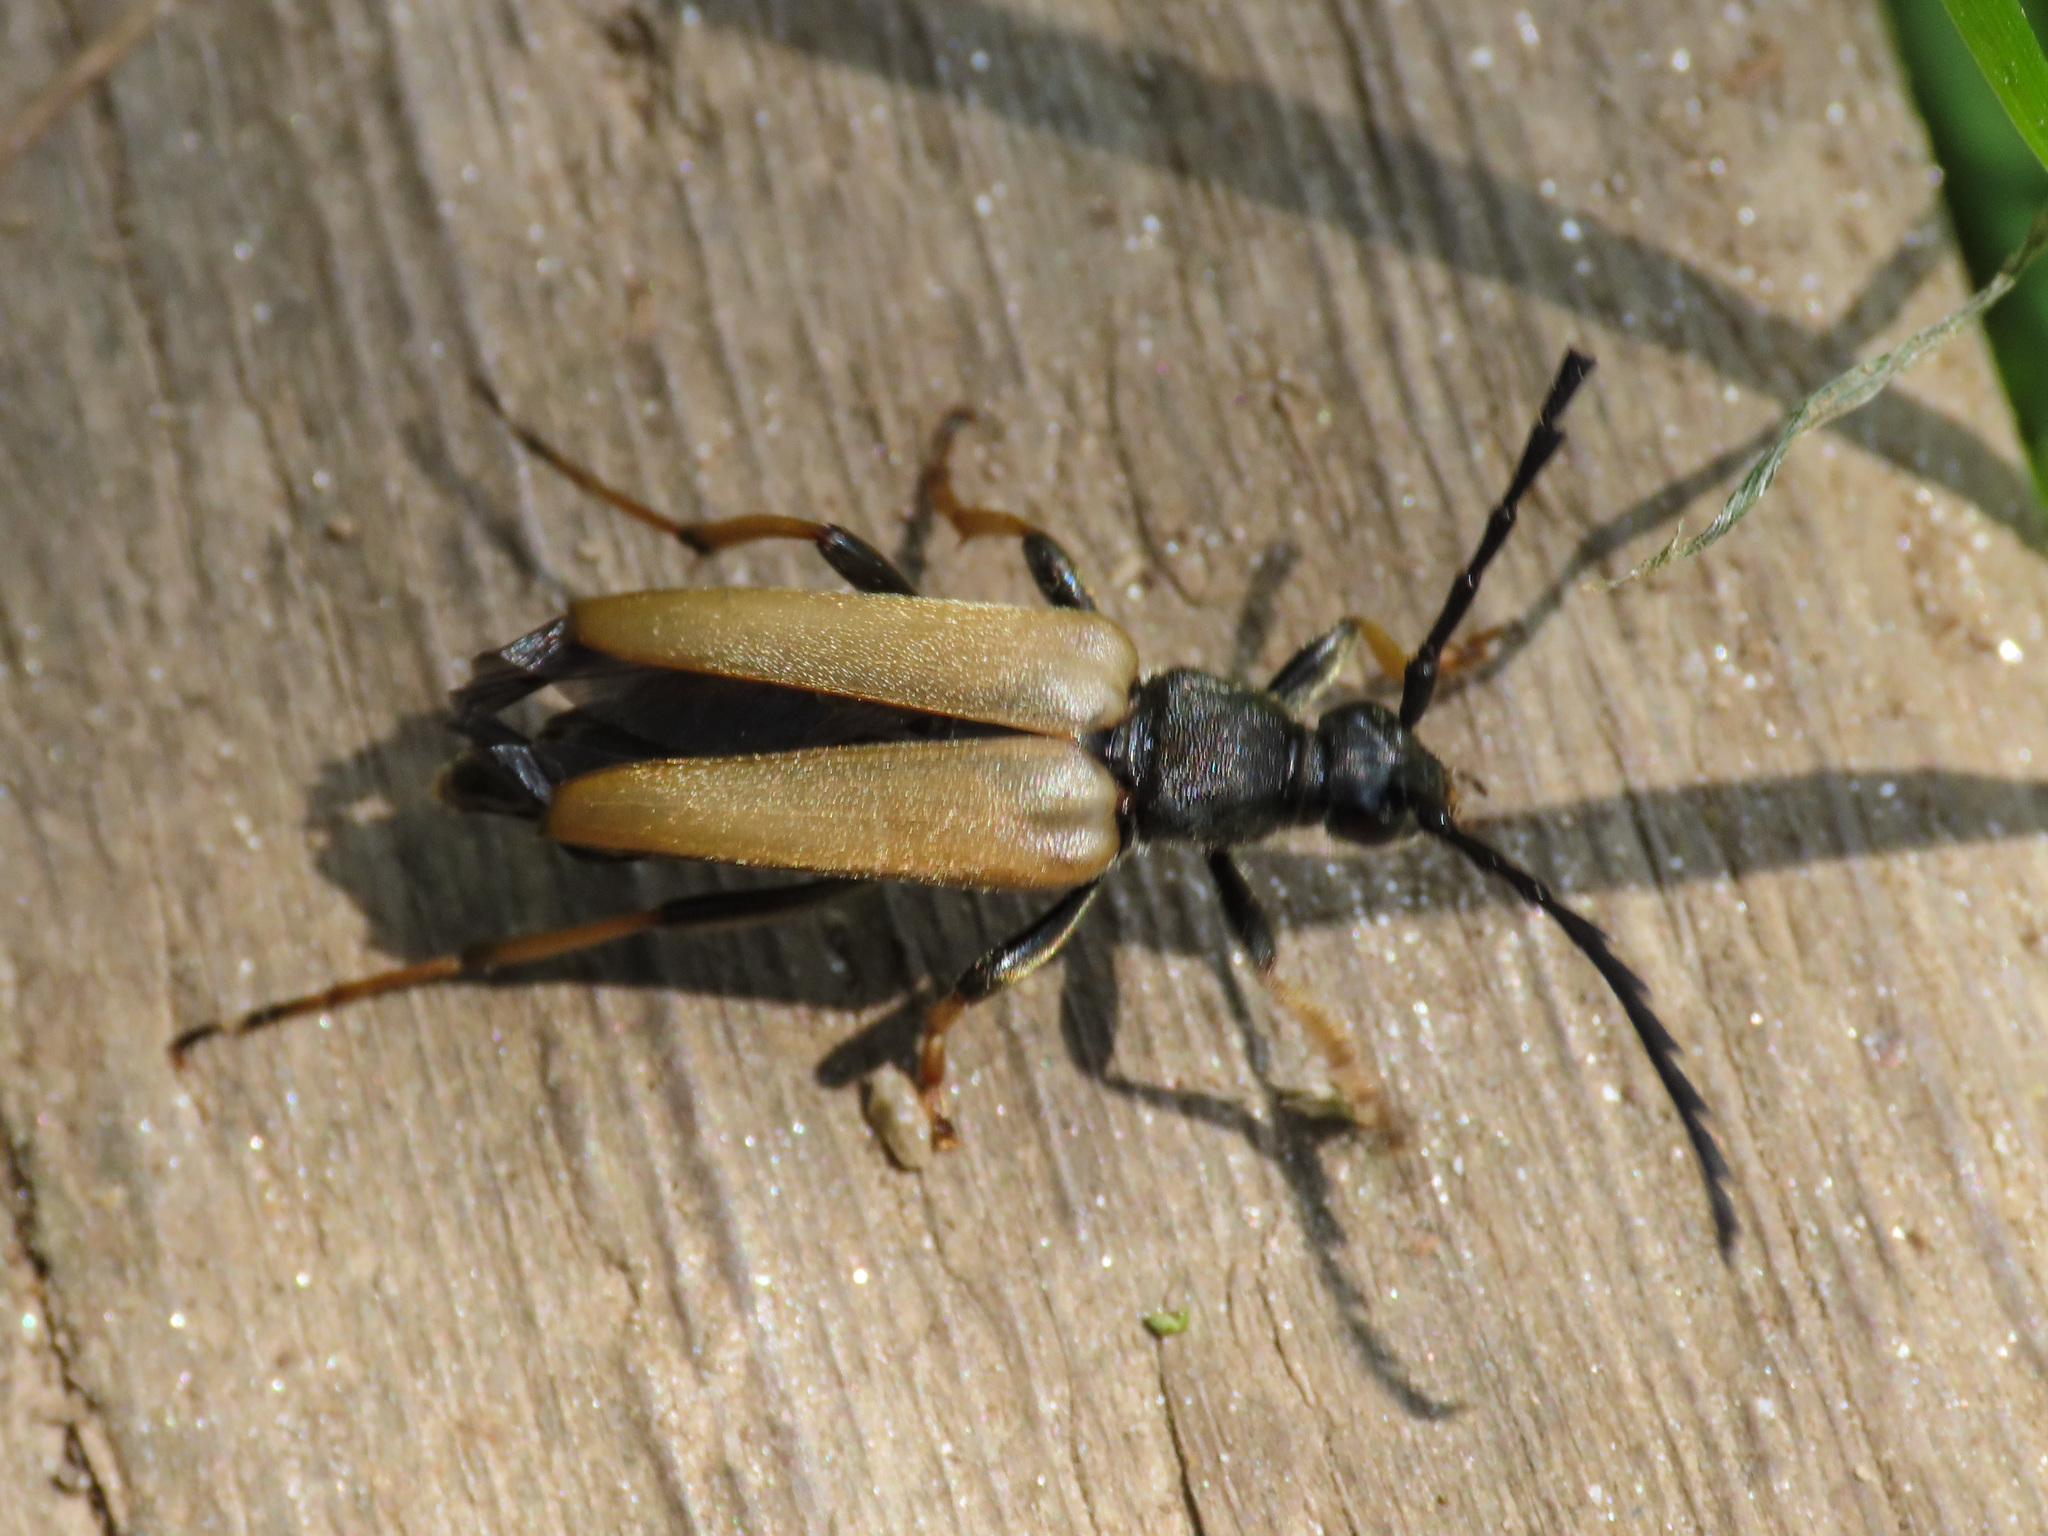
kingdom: Animalia
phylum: Arthropoda
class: Insecta
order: Coleoptera
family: Cerambycidae
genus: Stictoleptura
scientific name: Stictoleptura rubra
